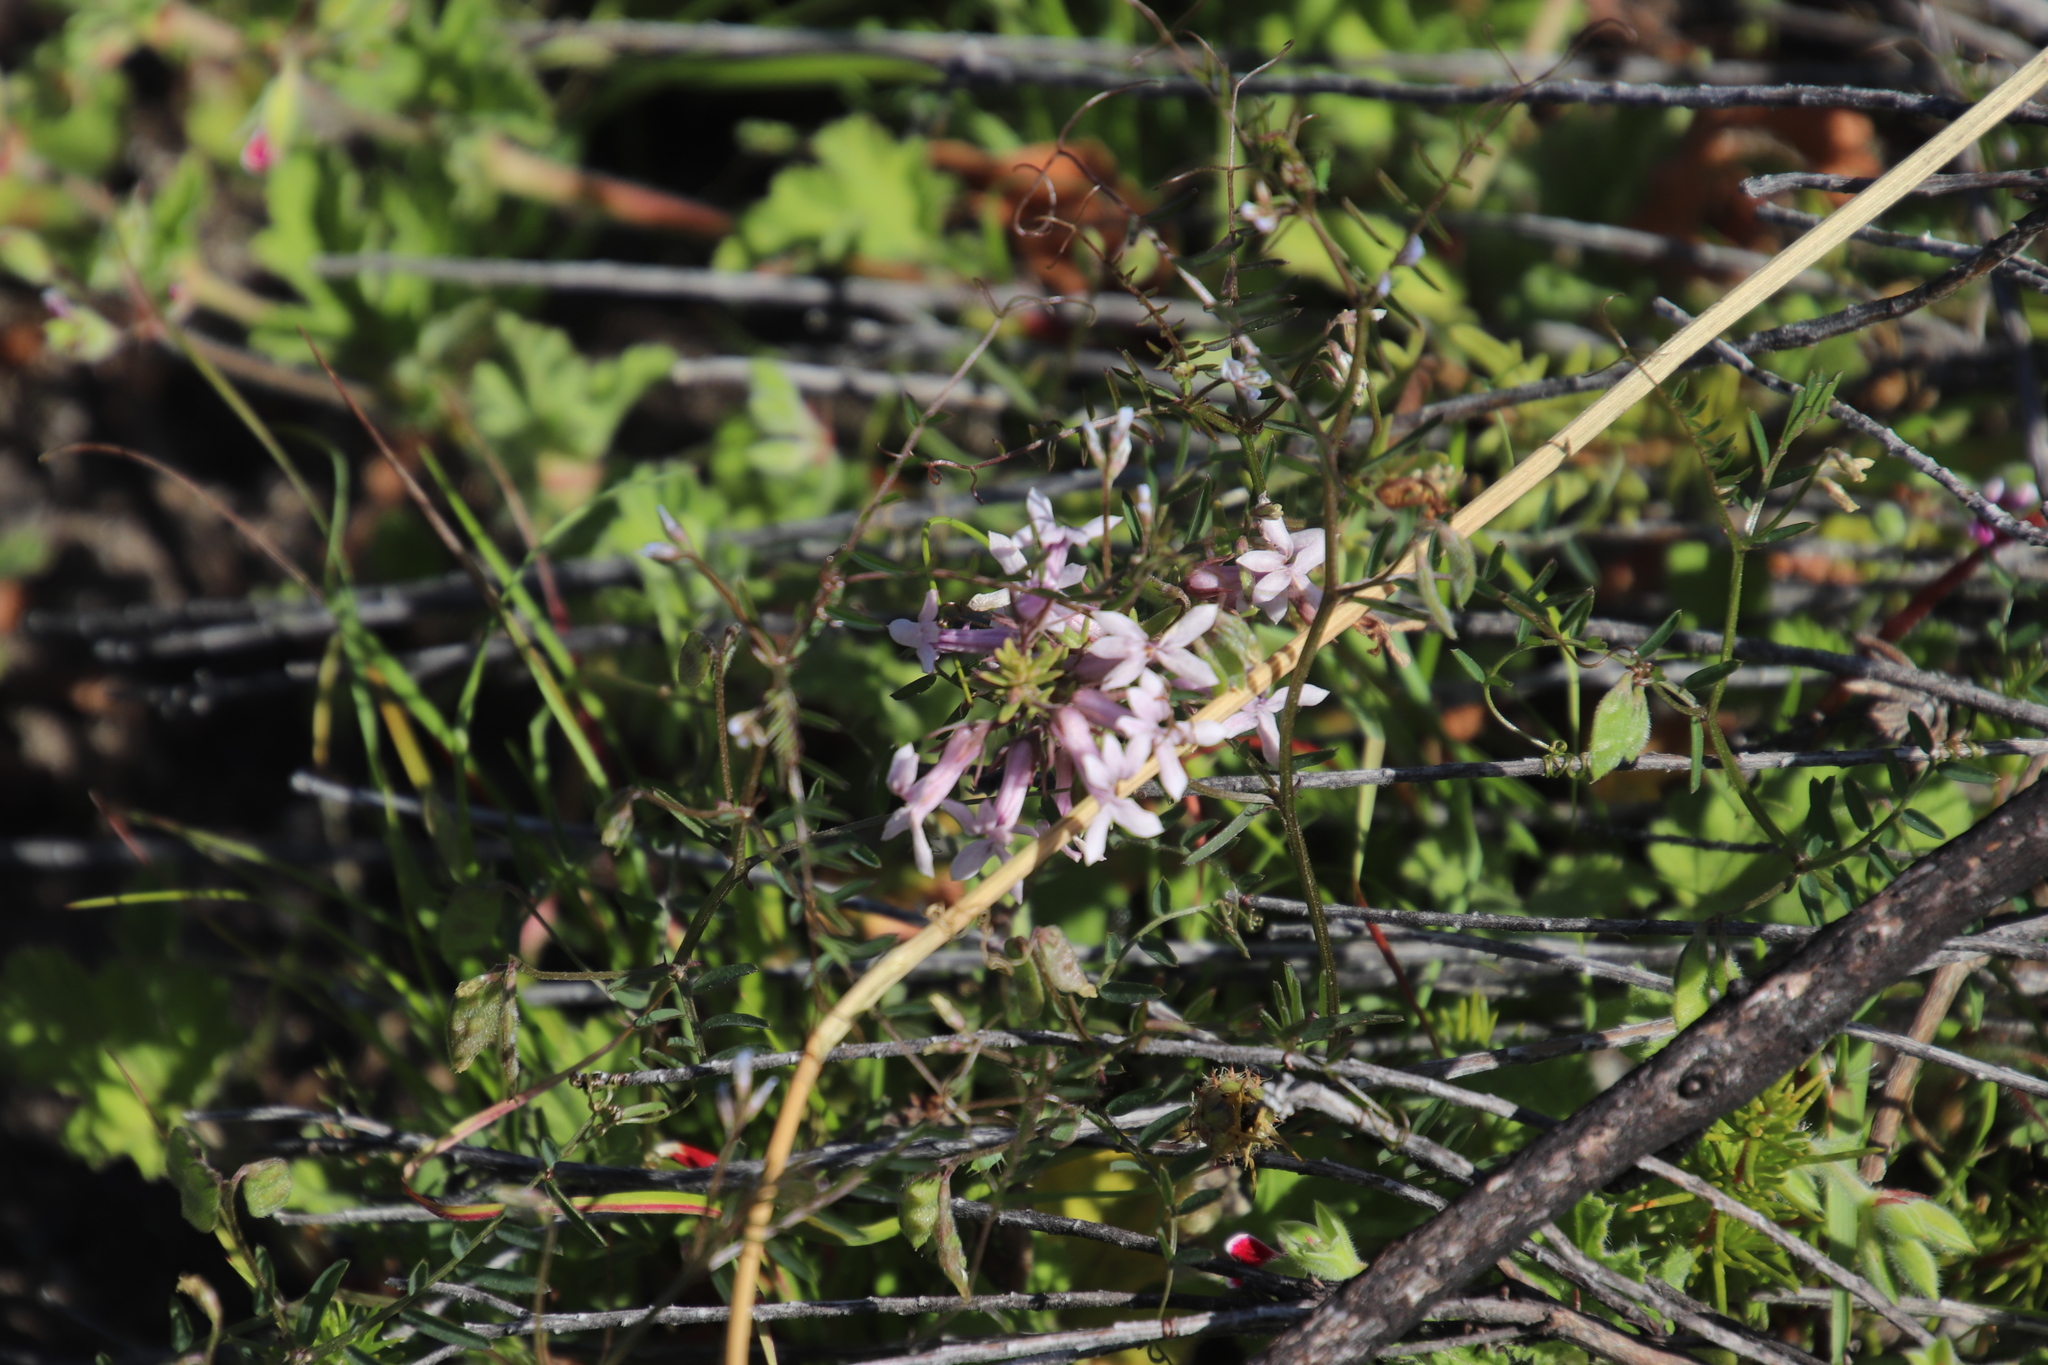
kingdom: Plantae
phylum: Tracheophyta
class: Magnoliopsida
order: Asterales
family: Campanulaceae
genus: Cyphia
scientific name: Cyphia bulbosa
